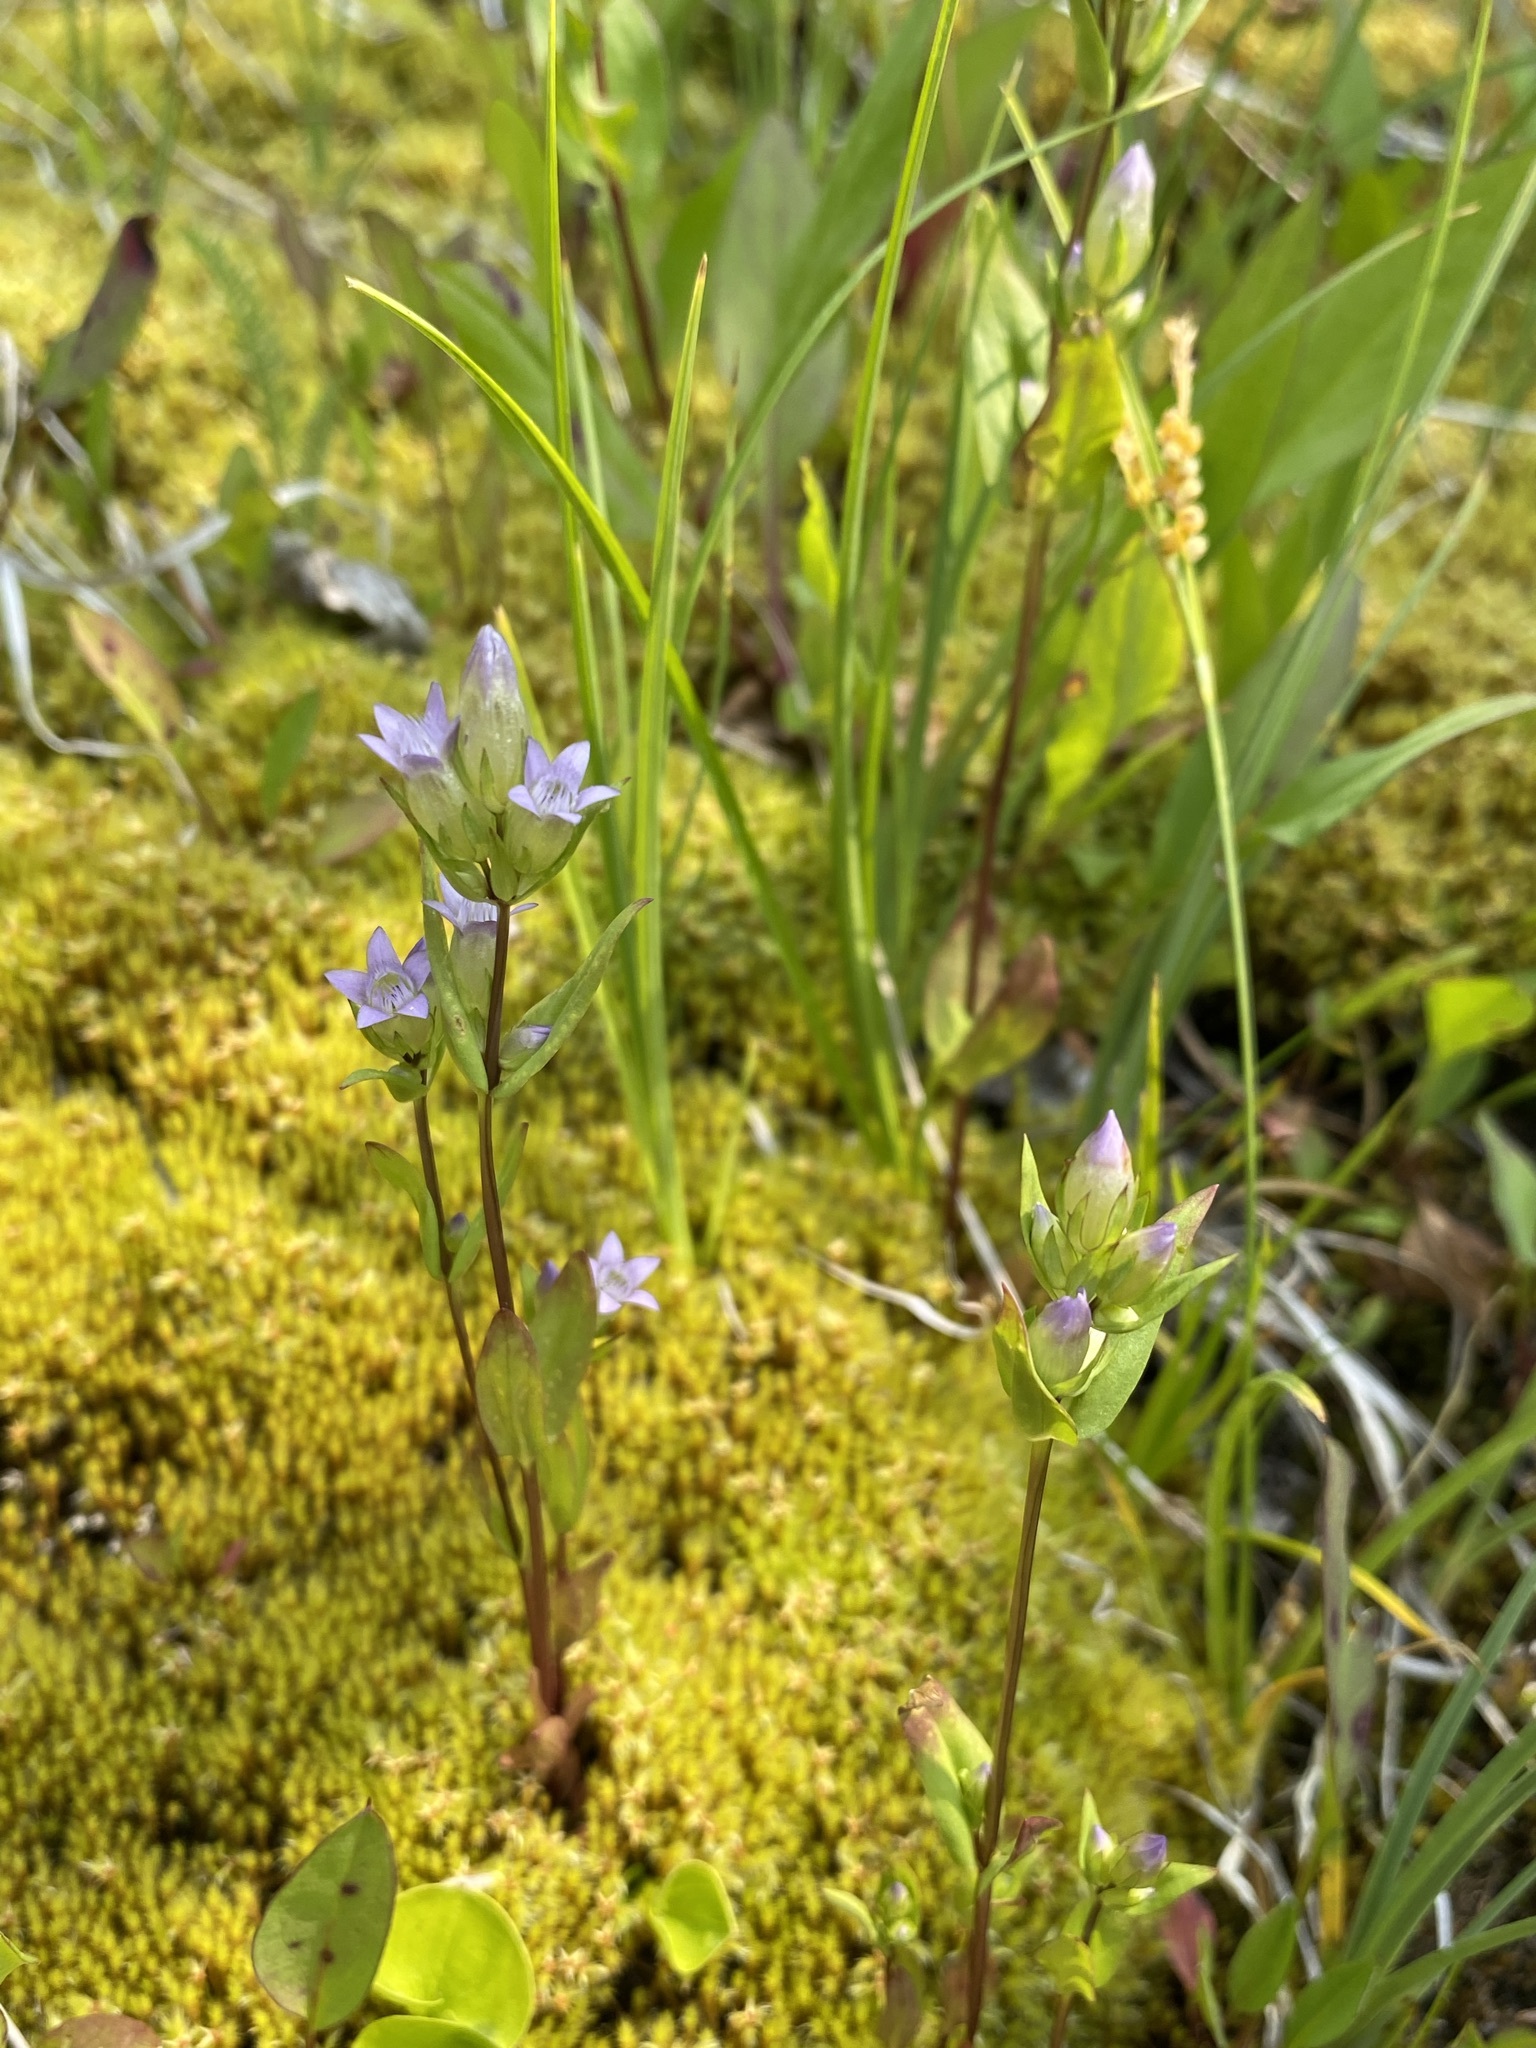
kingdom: Plantae
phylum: Tracheophyta
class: Magnoliopsida
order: Gentianales
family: Gentianaceae
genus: Gentianella
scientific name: Gentianella amarella
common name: Autumn gentian
